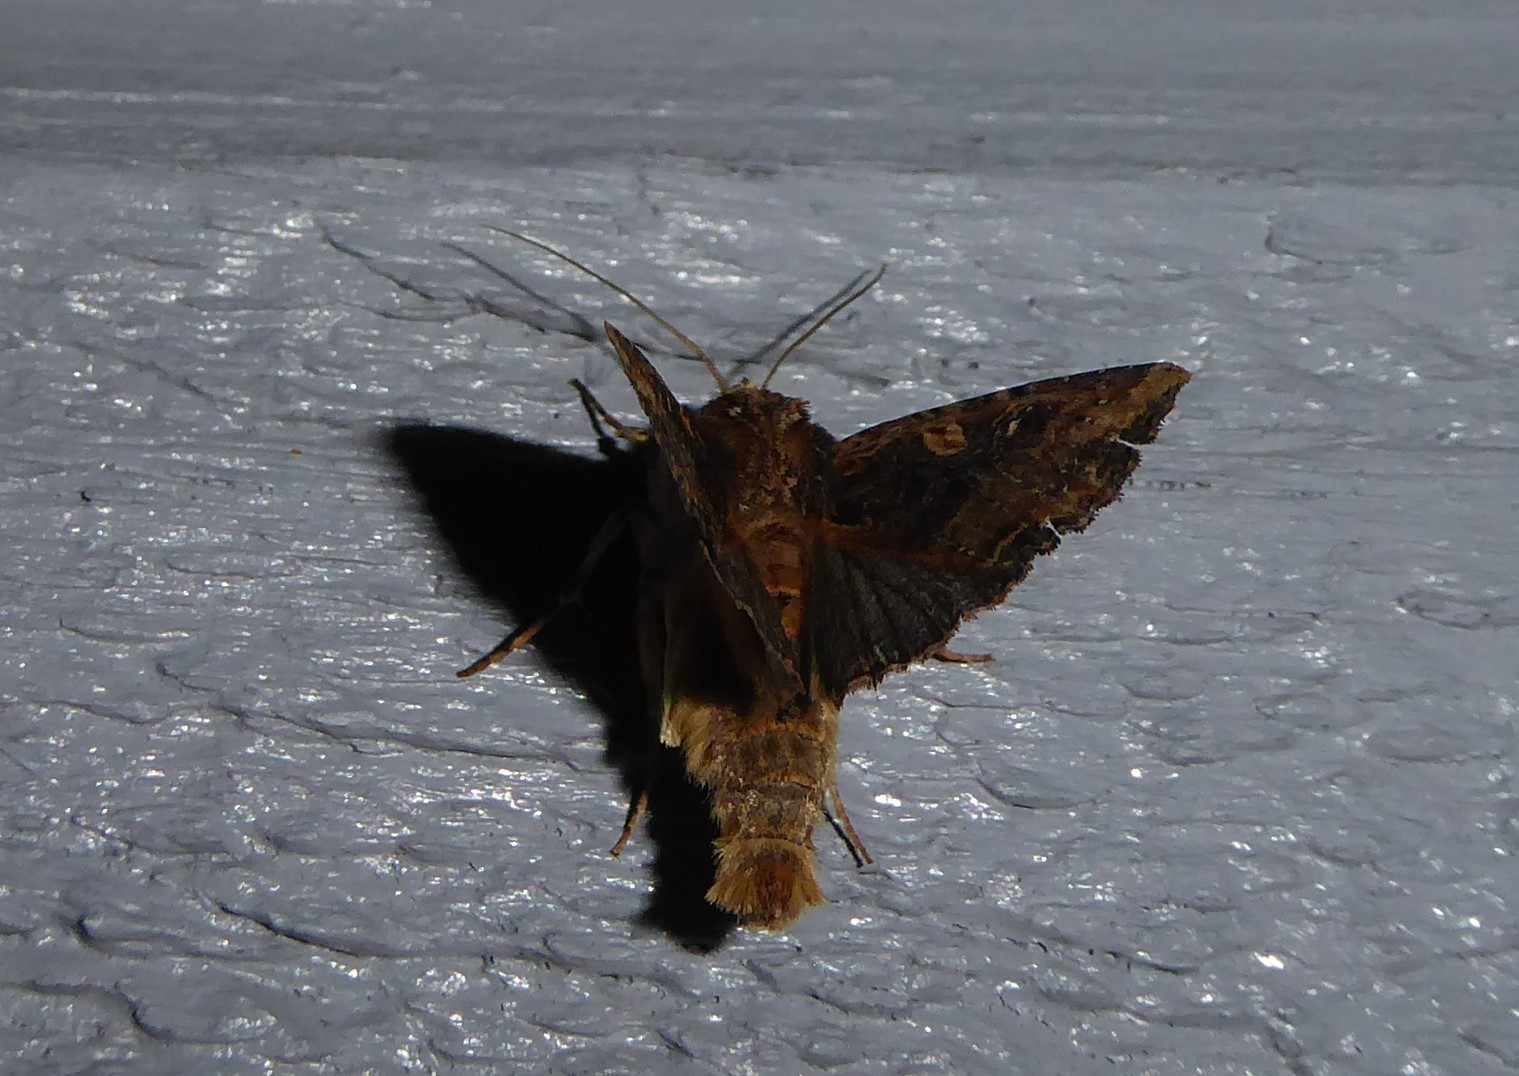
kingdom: Animalia
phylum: Arthropoda
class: Insecta
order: Lepidoptera
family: Noctuidae
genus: Meterana
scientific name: Meterana stipata
